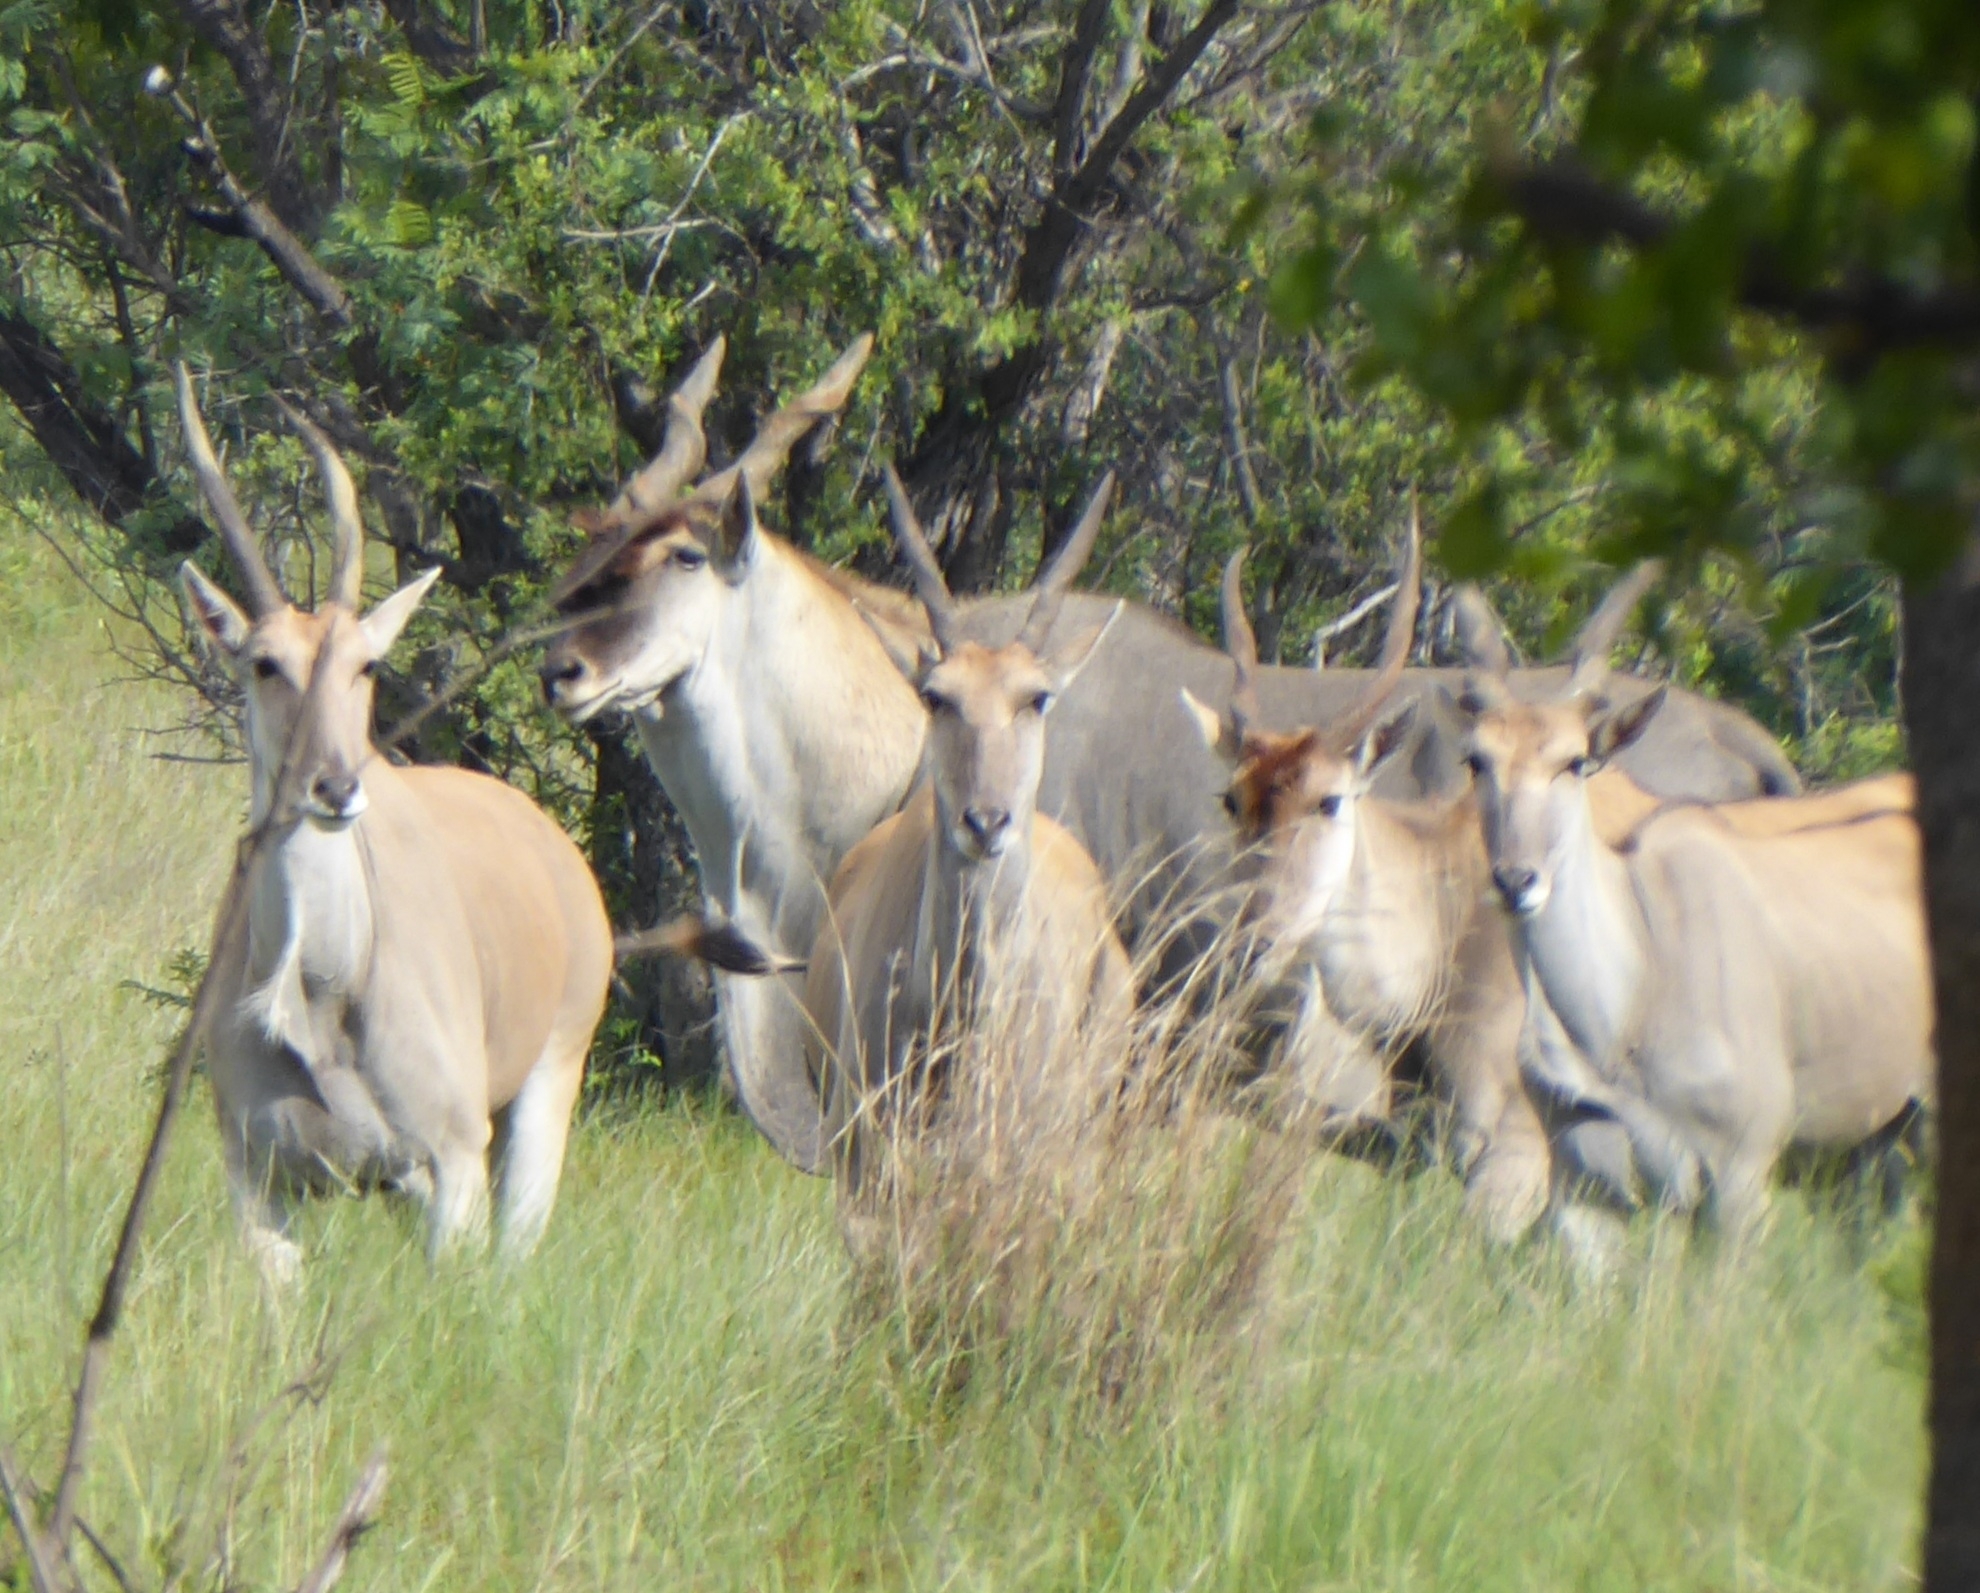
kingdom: Animalia
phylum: Chordata
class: Mammalia
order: Artiodactyla
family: Bovidae
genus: Taurotragus
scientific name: Taurotragus oryx
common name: Common eland
